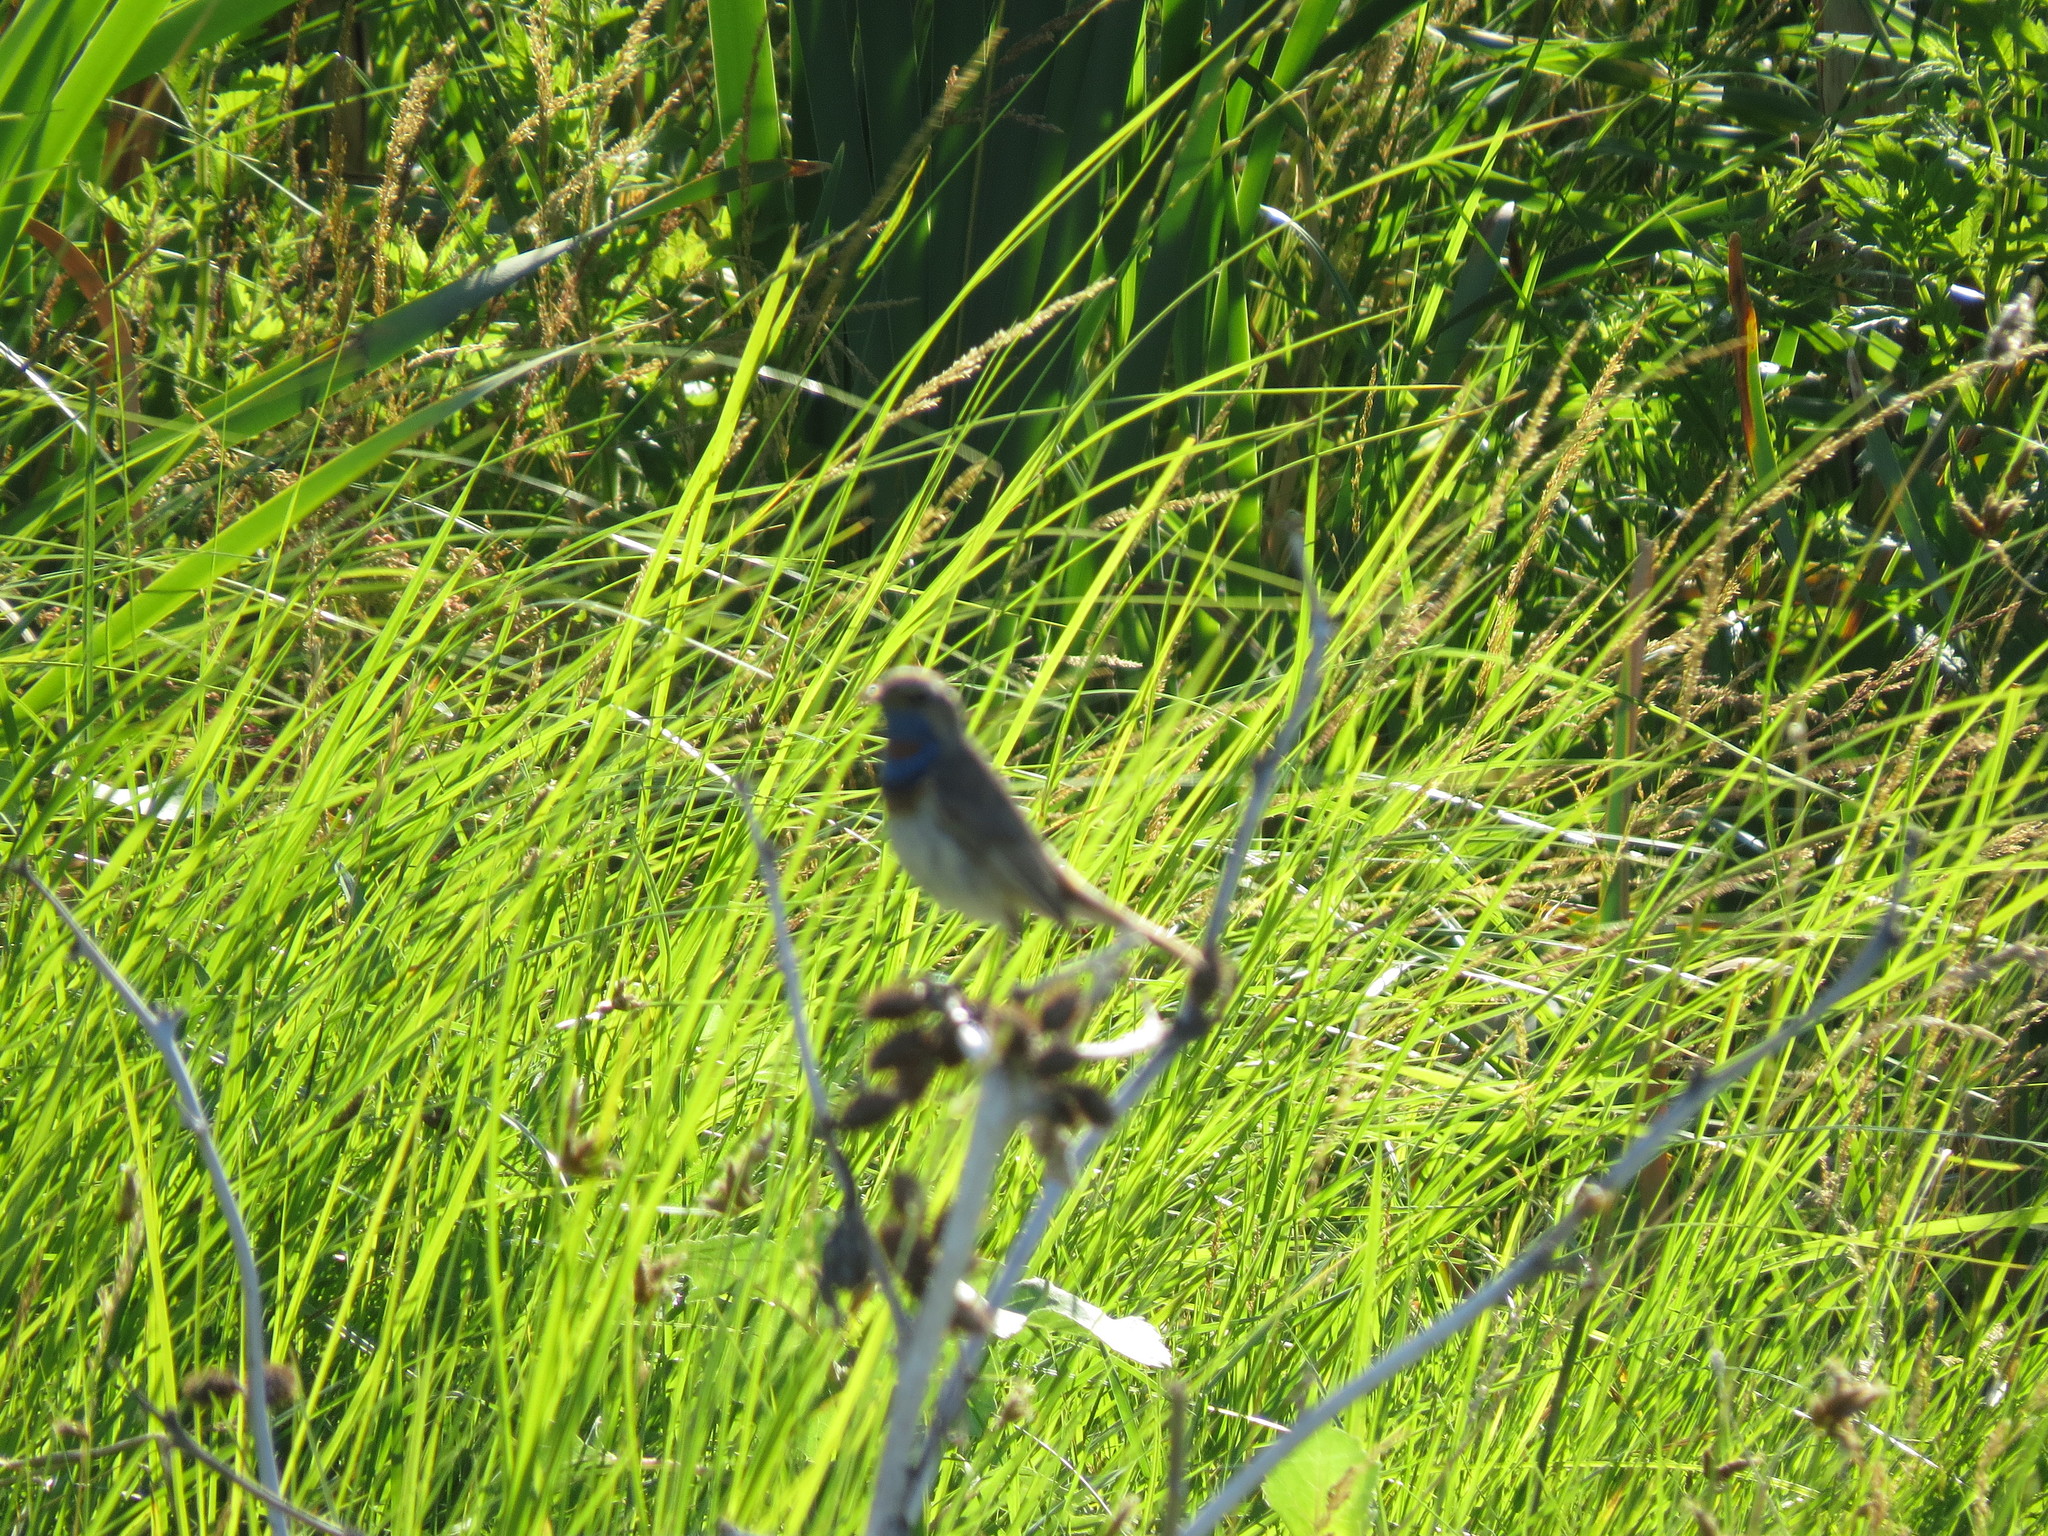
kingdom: Animalia
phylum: Chordata
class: Aves
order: Passeriformes
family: Muscicapidae
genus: Luscinia
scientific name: Luscinia svecica
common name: Bluethroat
